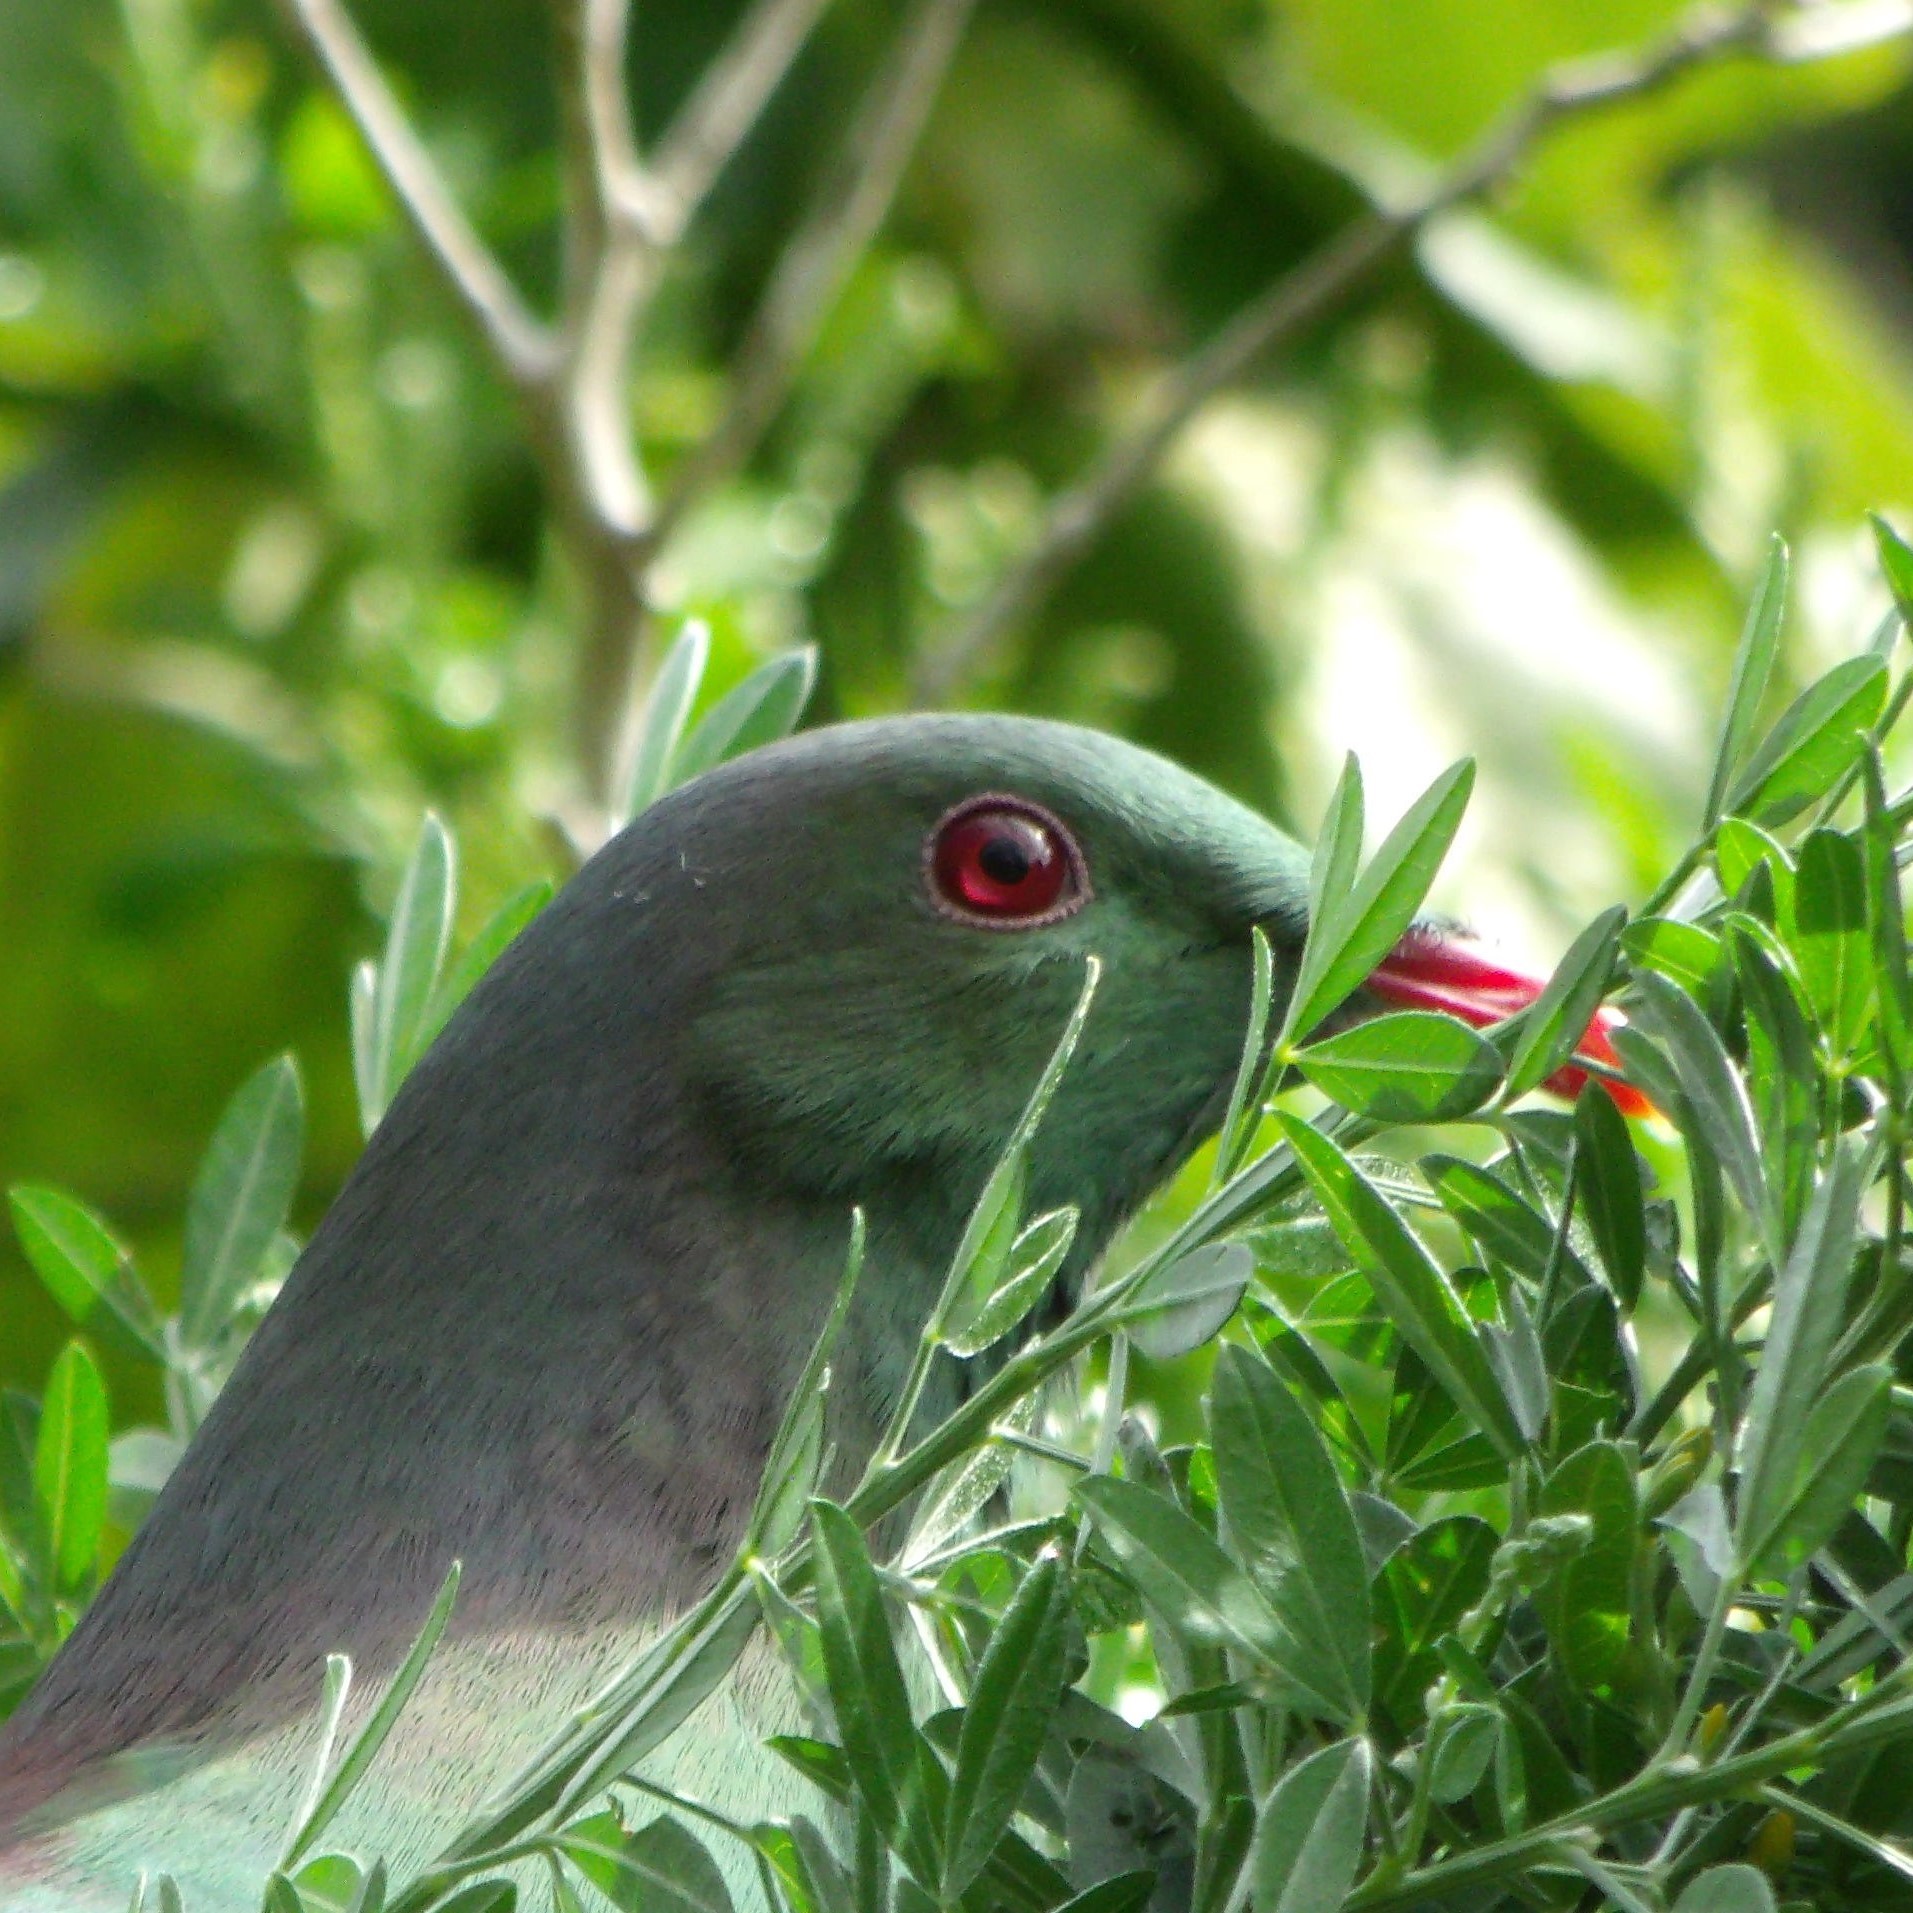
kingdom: Animalia
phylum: Chordata
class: Aves
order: Columbiformes
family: Columbidae
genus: Hemiphaga
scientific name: Hemiphaga novaeseelandiae
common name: New zealand pigeon
